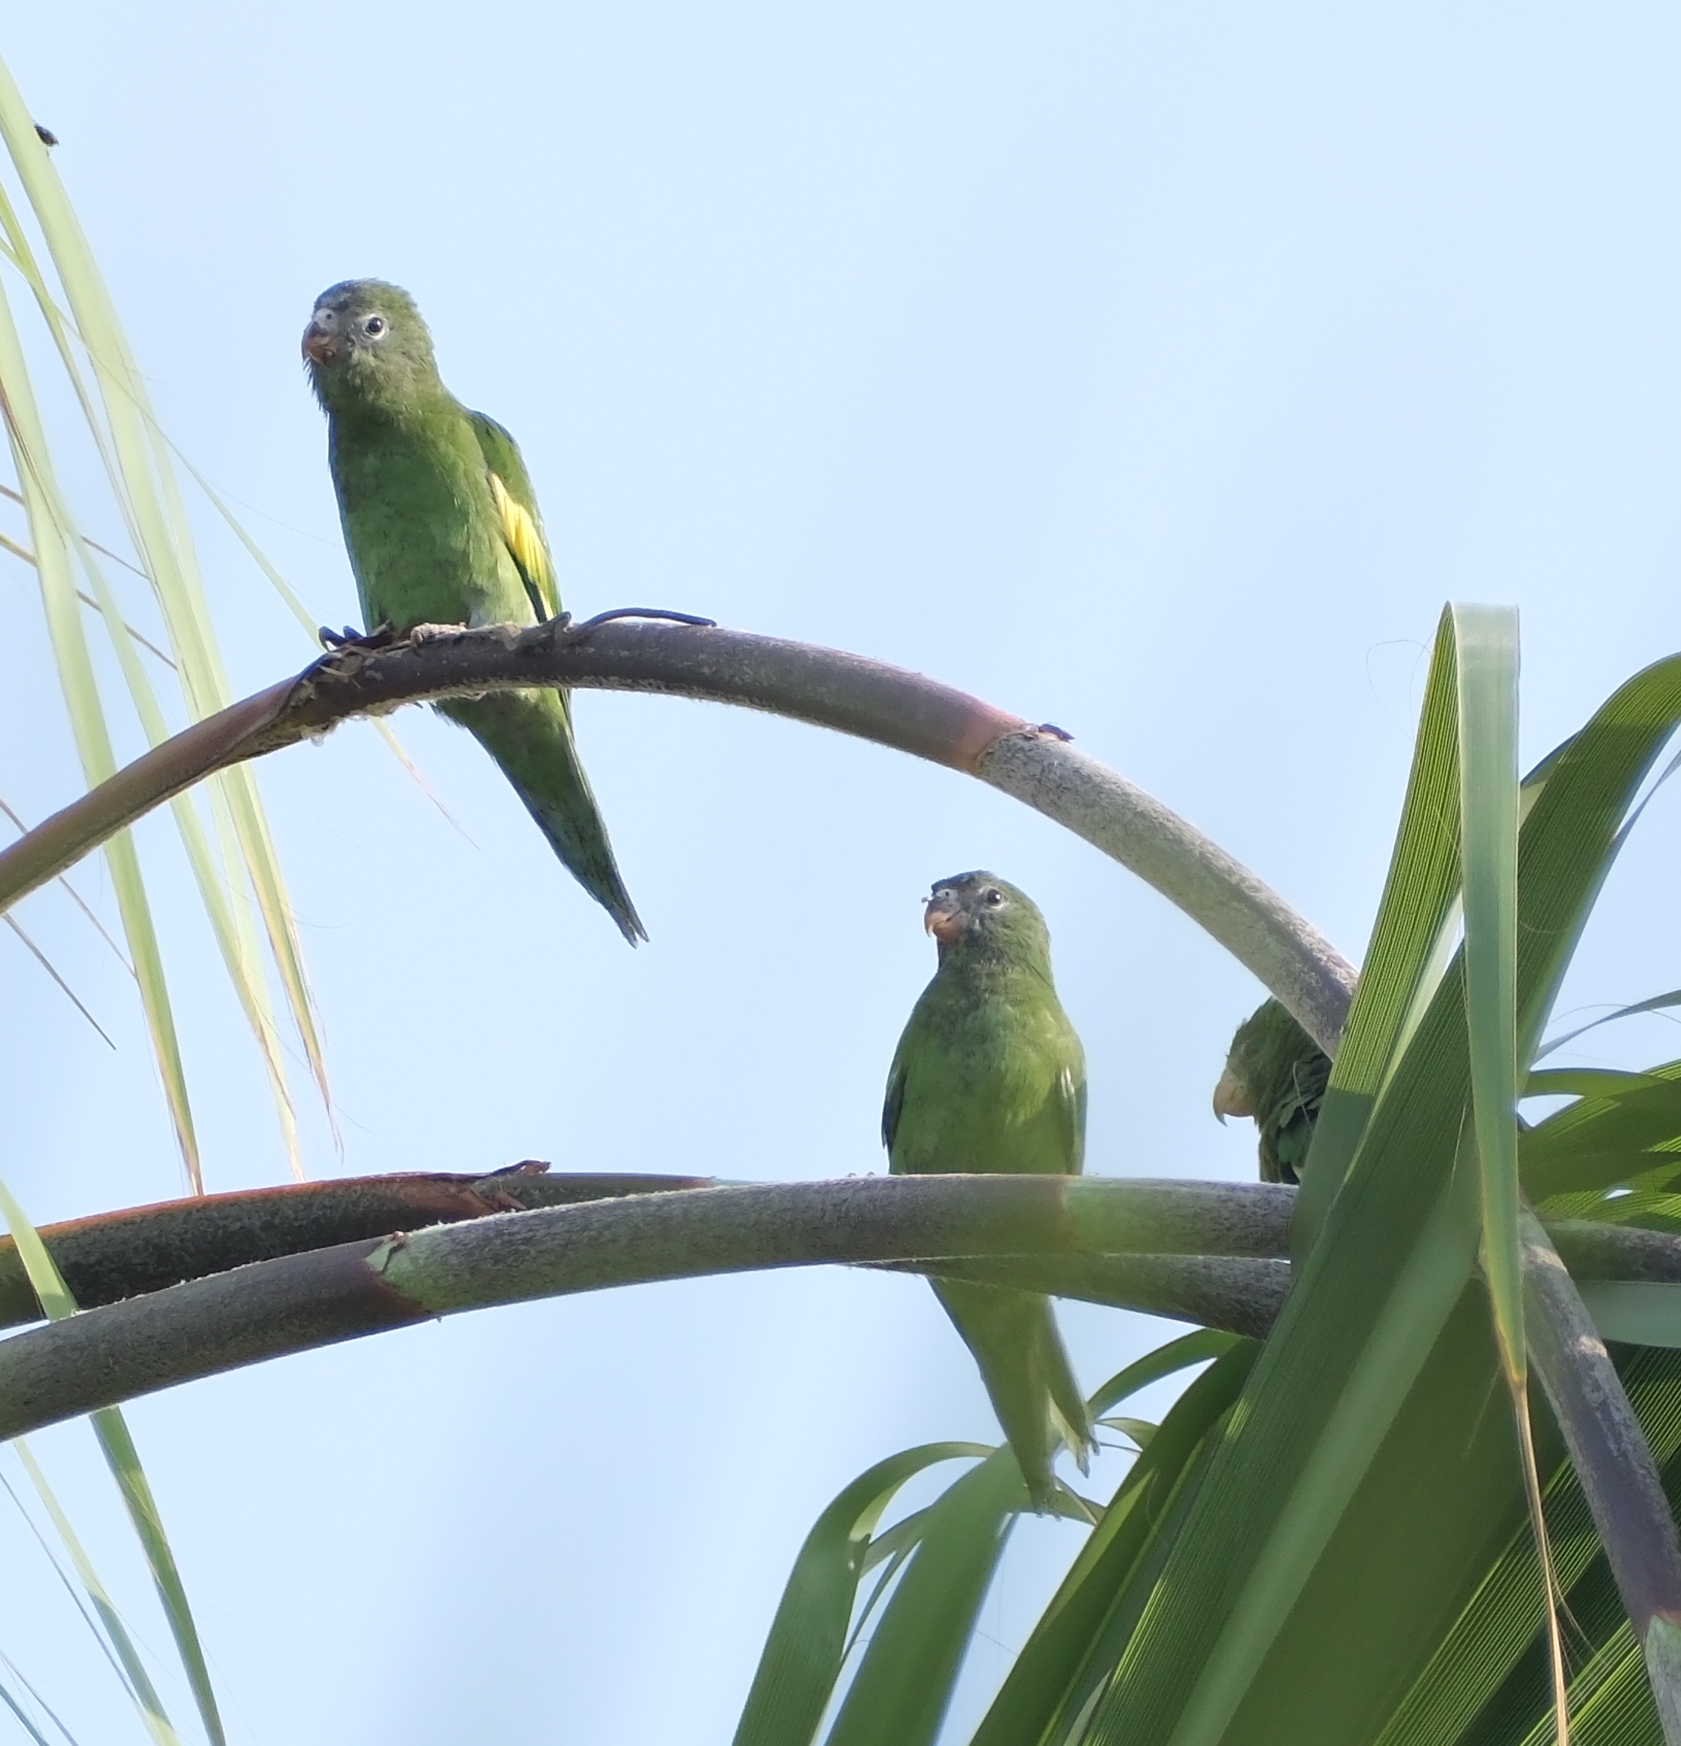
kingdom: Animalia
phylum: Chordata
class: Aves
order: Psittaciformes
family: Psittacidae
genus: Brotogeris
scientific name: Brotogeris versicolurus
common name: White-winged parakeet
